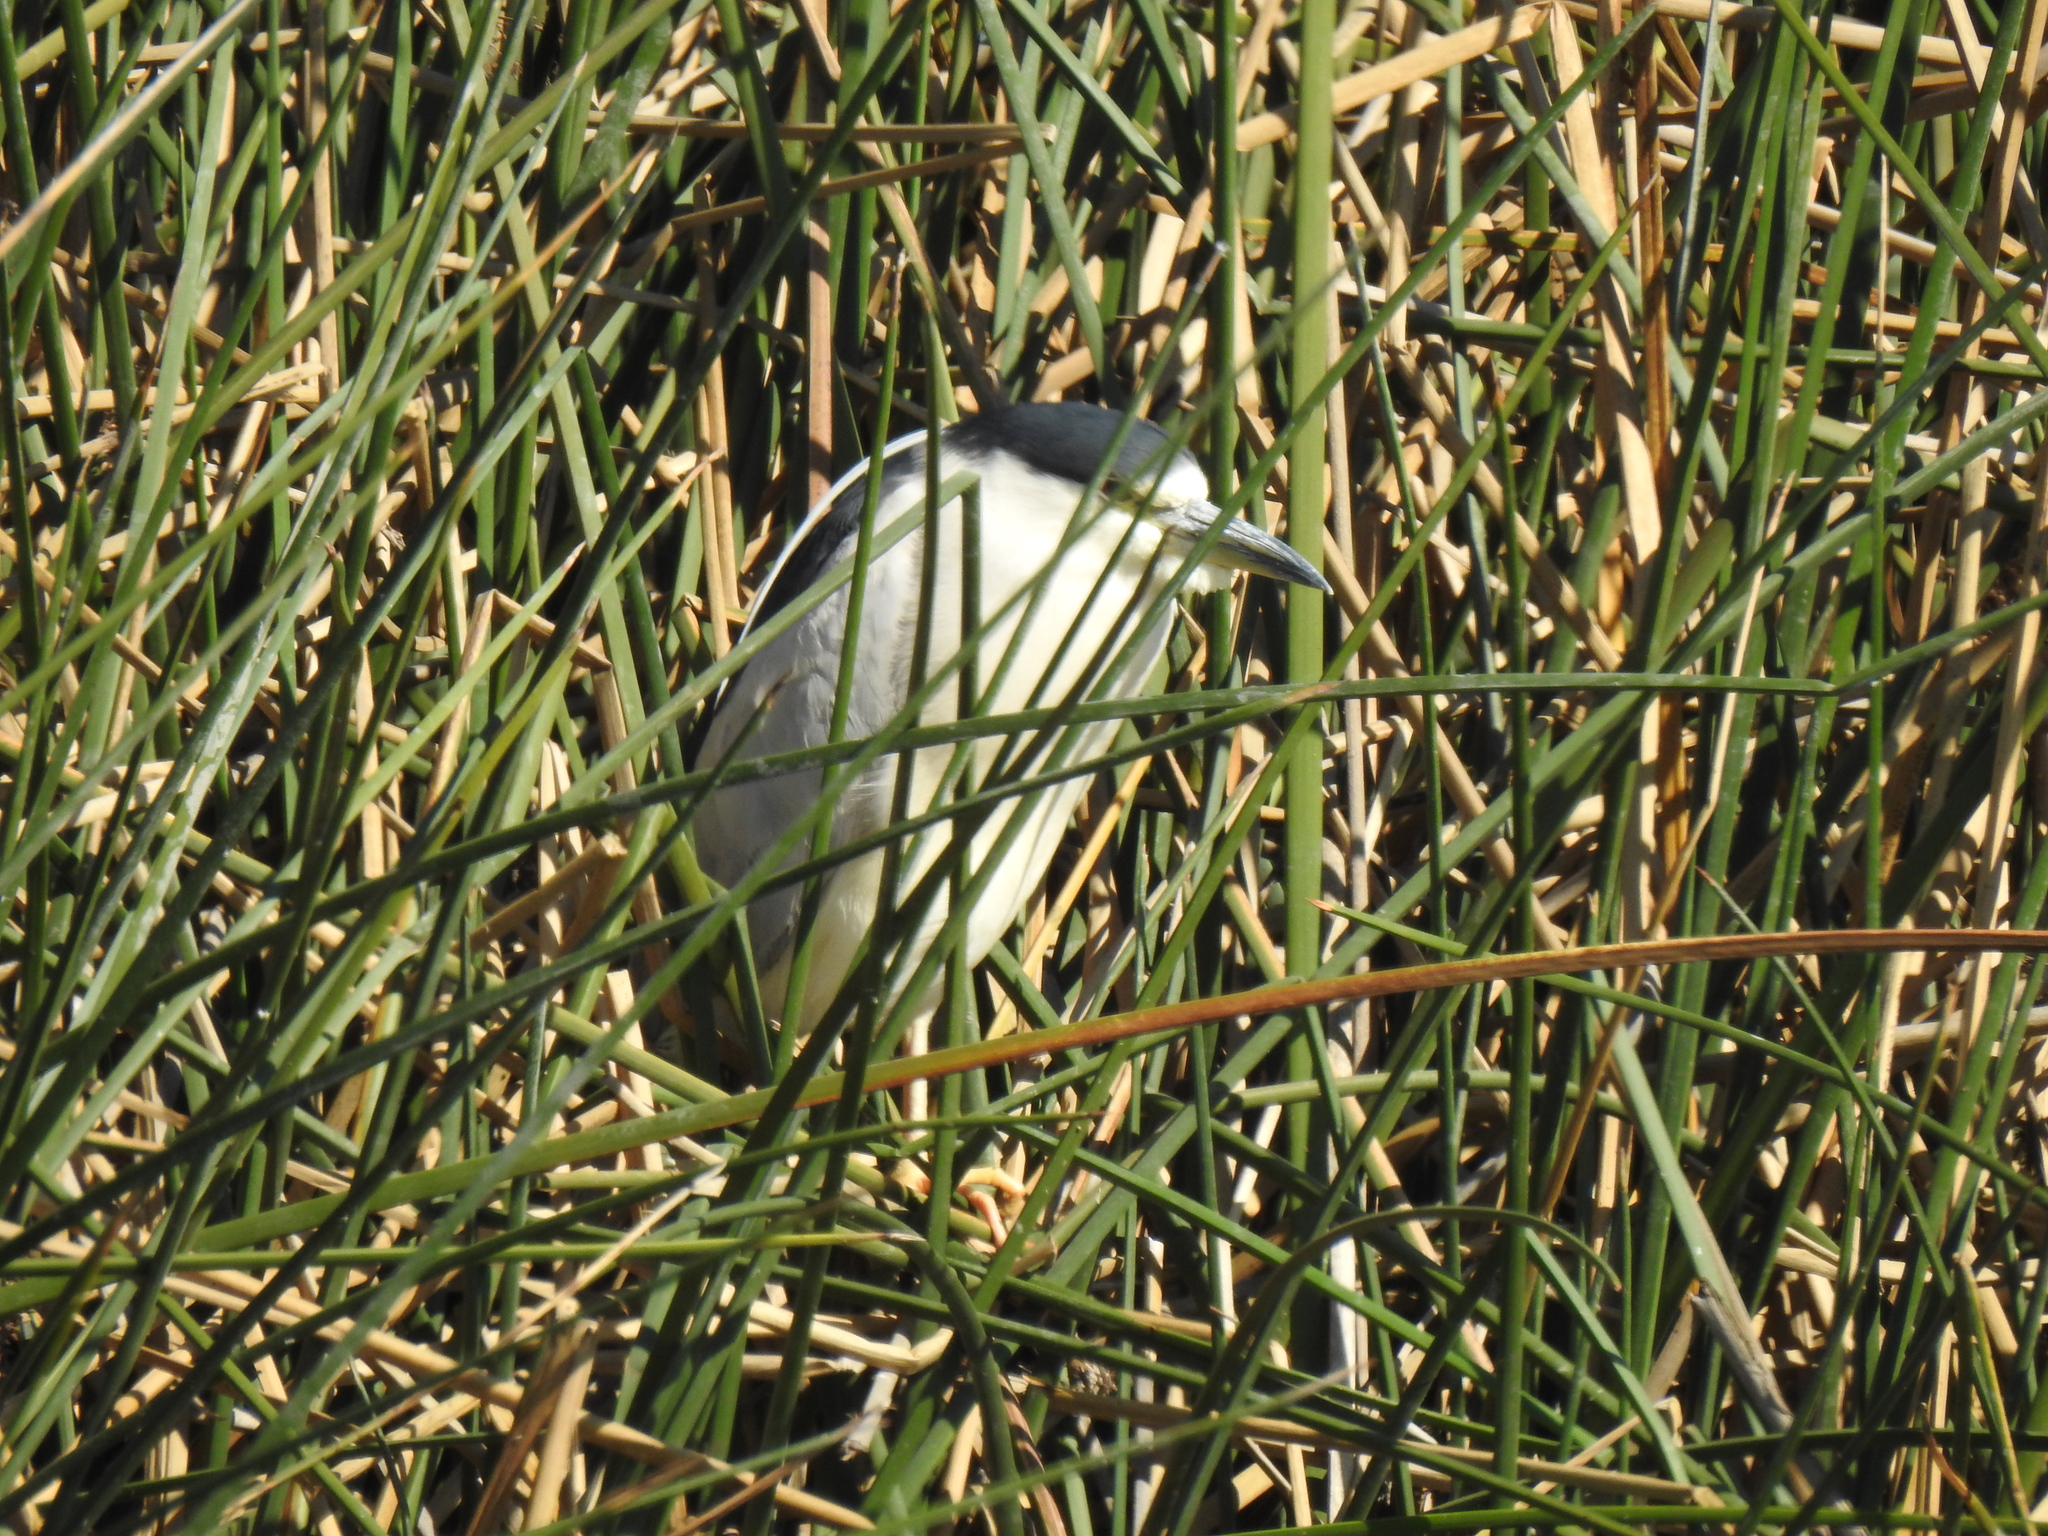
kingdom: Animalia
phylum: Chordata
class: Aves
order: Pelecaniformes
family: Ardeidae
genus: Nycticorax
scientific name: Nycticorax nycticorax
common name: Black-crowned night heron
